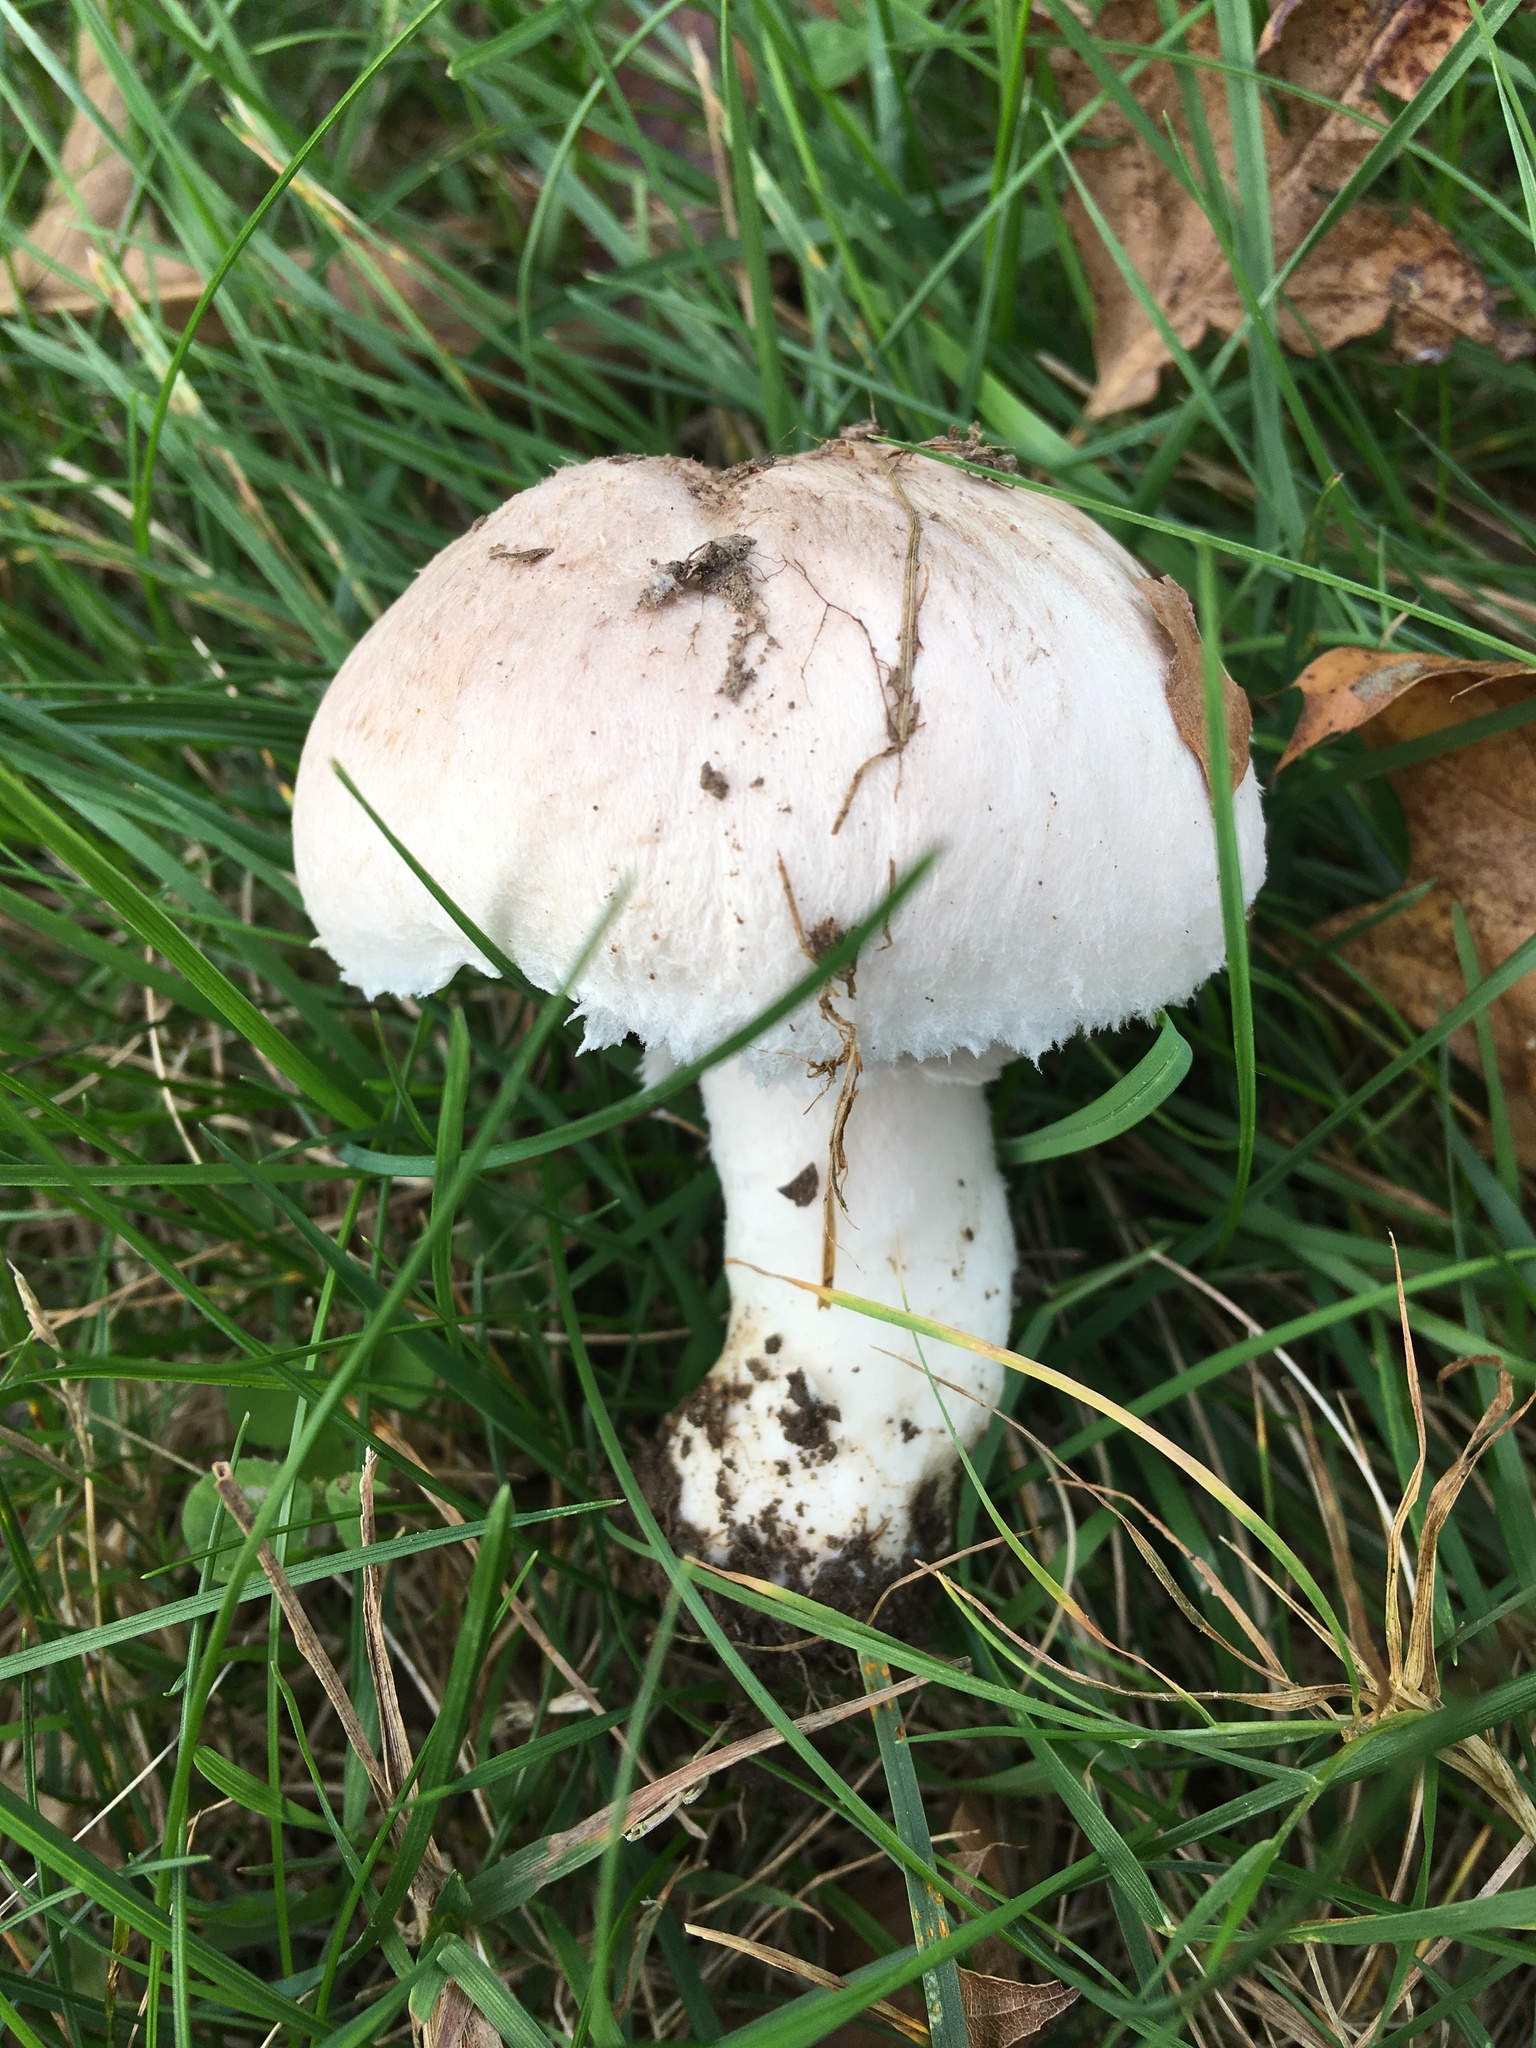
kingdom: Fungi
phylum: Basidiomycota
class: Agaricomycetes
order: Agaricales
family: Agaricaceae
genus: Agaricus
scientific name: Agaricus andrewii
